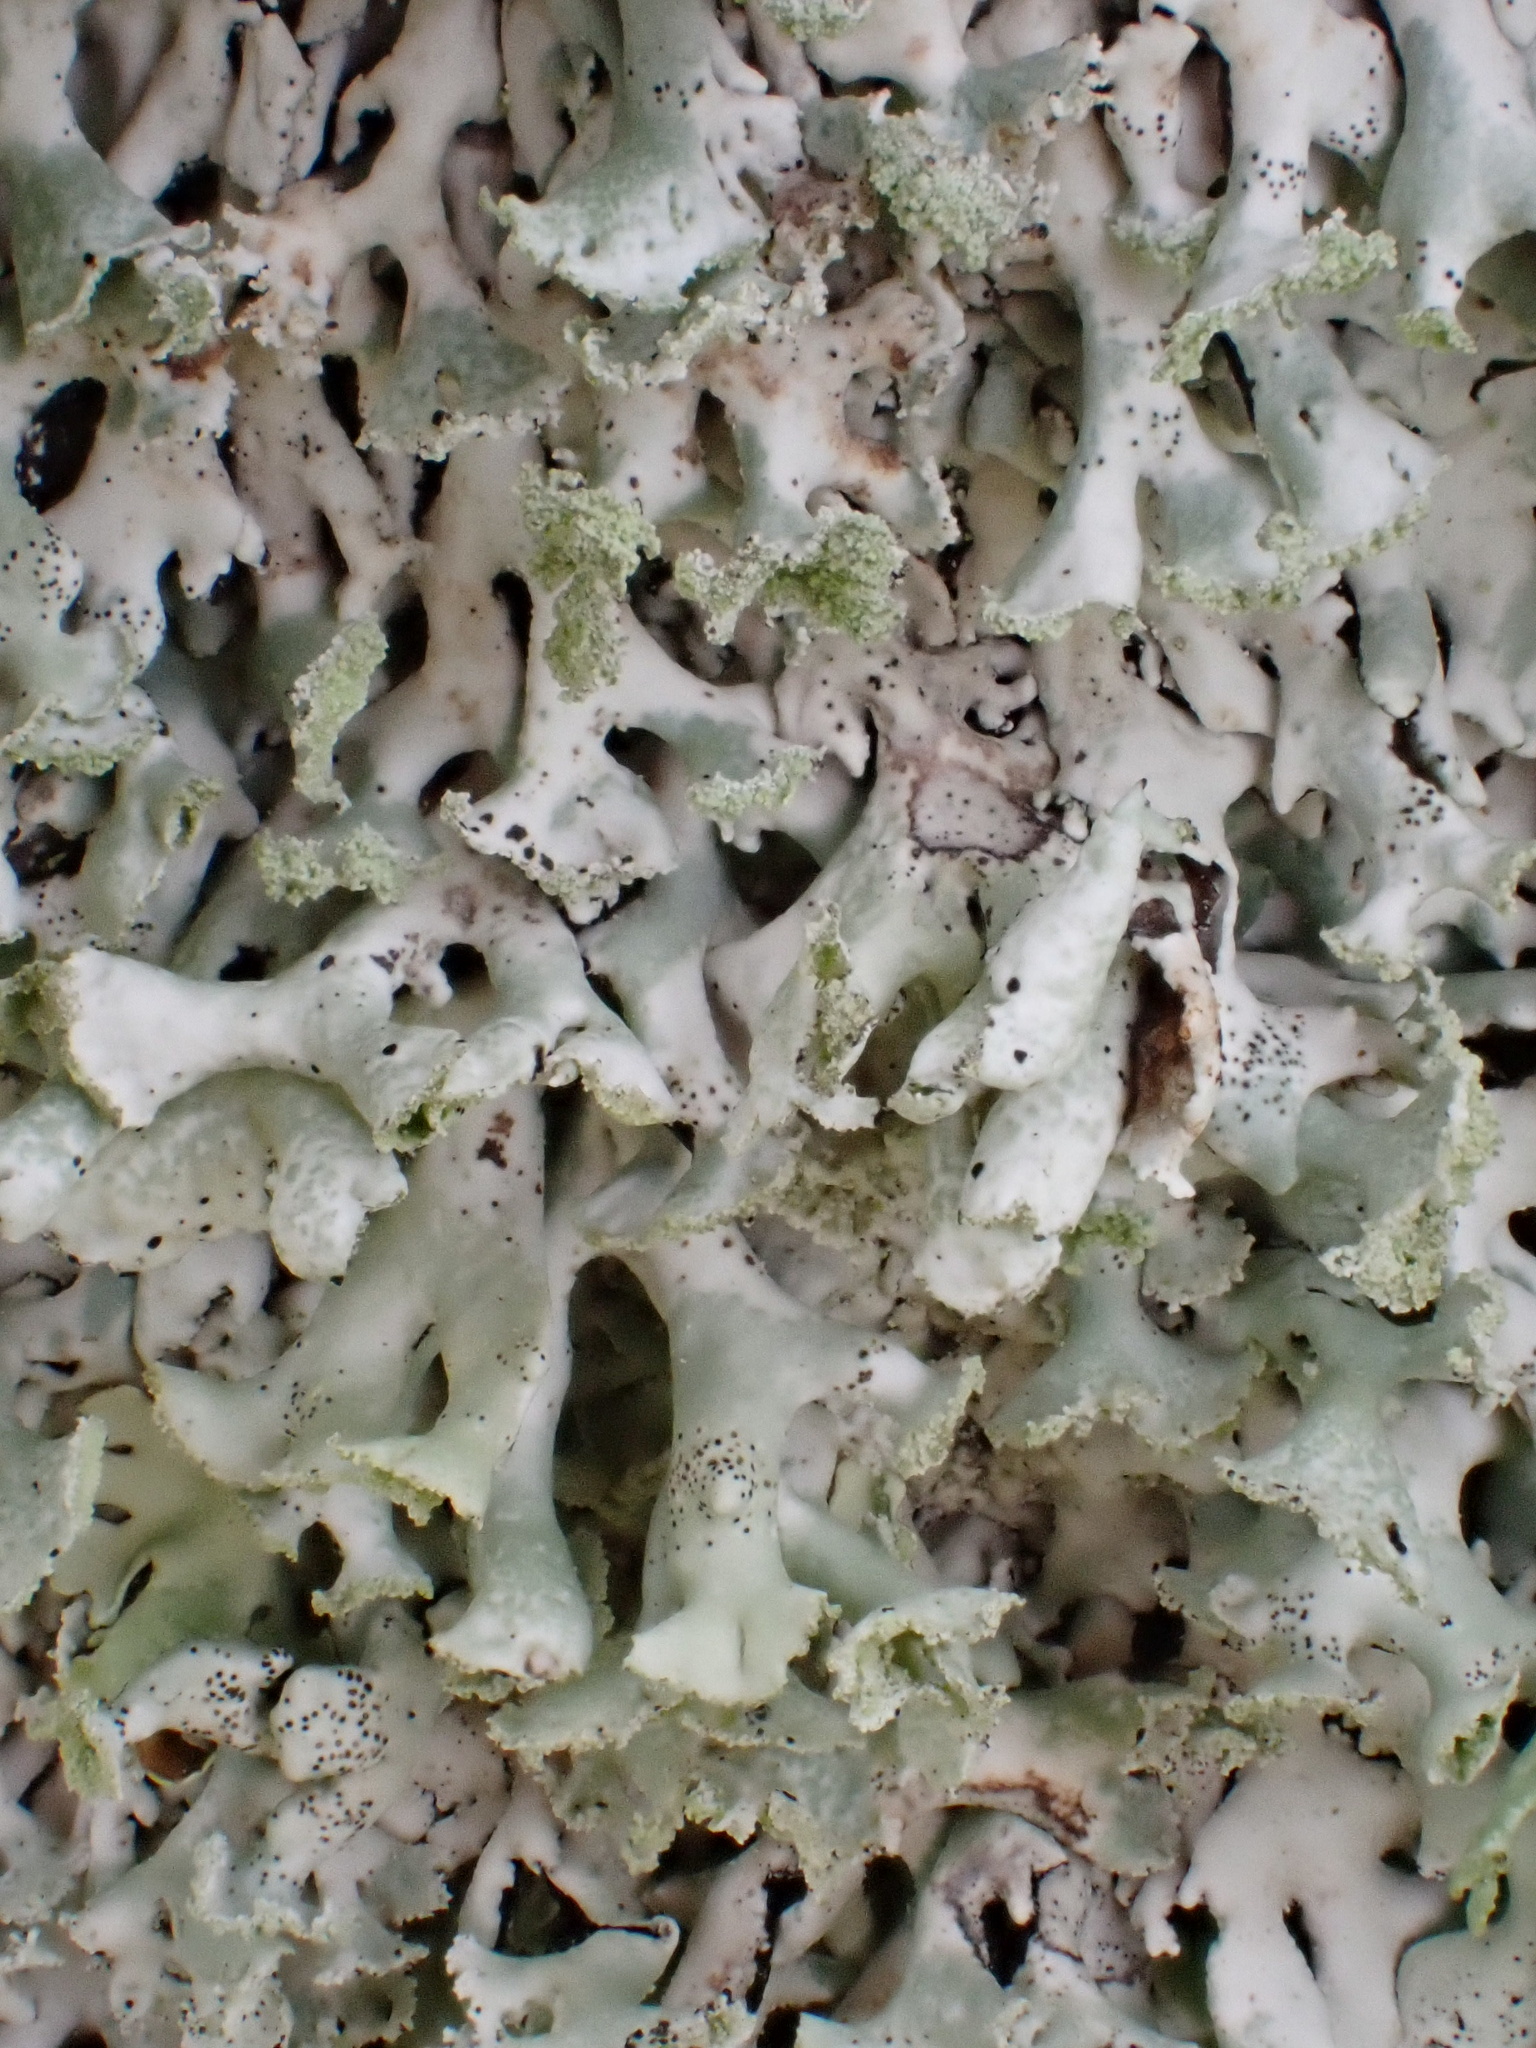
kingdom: Fungi
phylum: Ascomycota
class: Lecanoromycetes
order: Lecanorales
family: Parmeliaceae
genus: Hypogymnia
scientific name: Hypogymnia physodes
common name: Dark crottle
